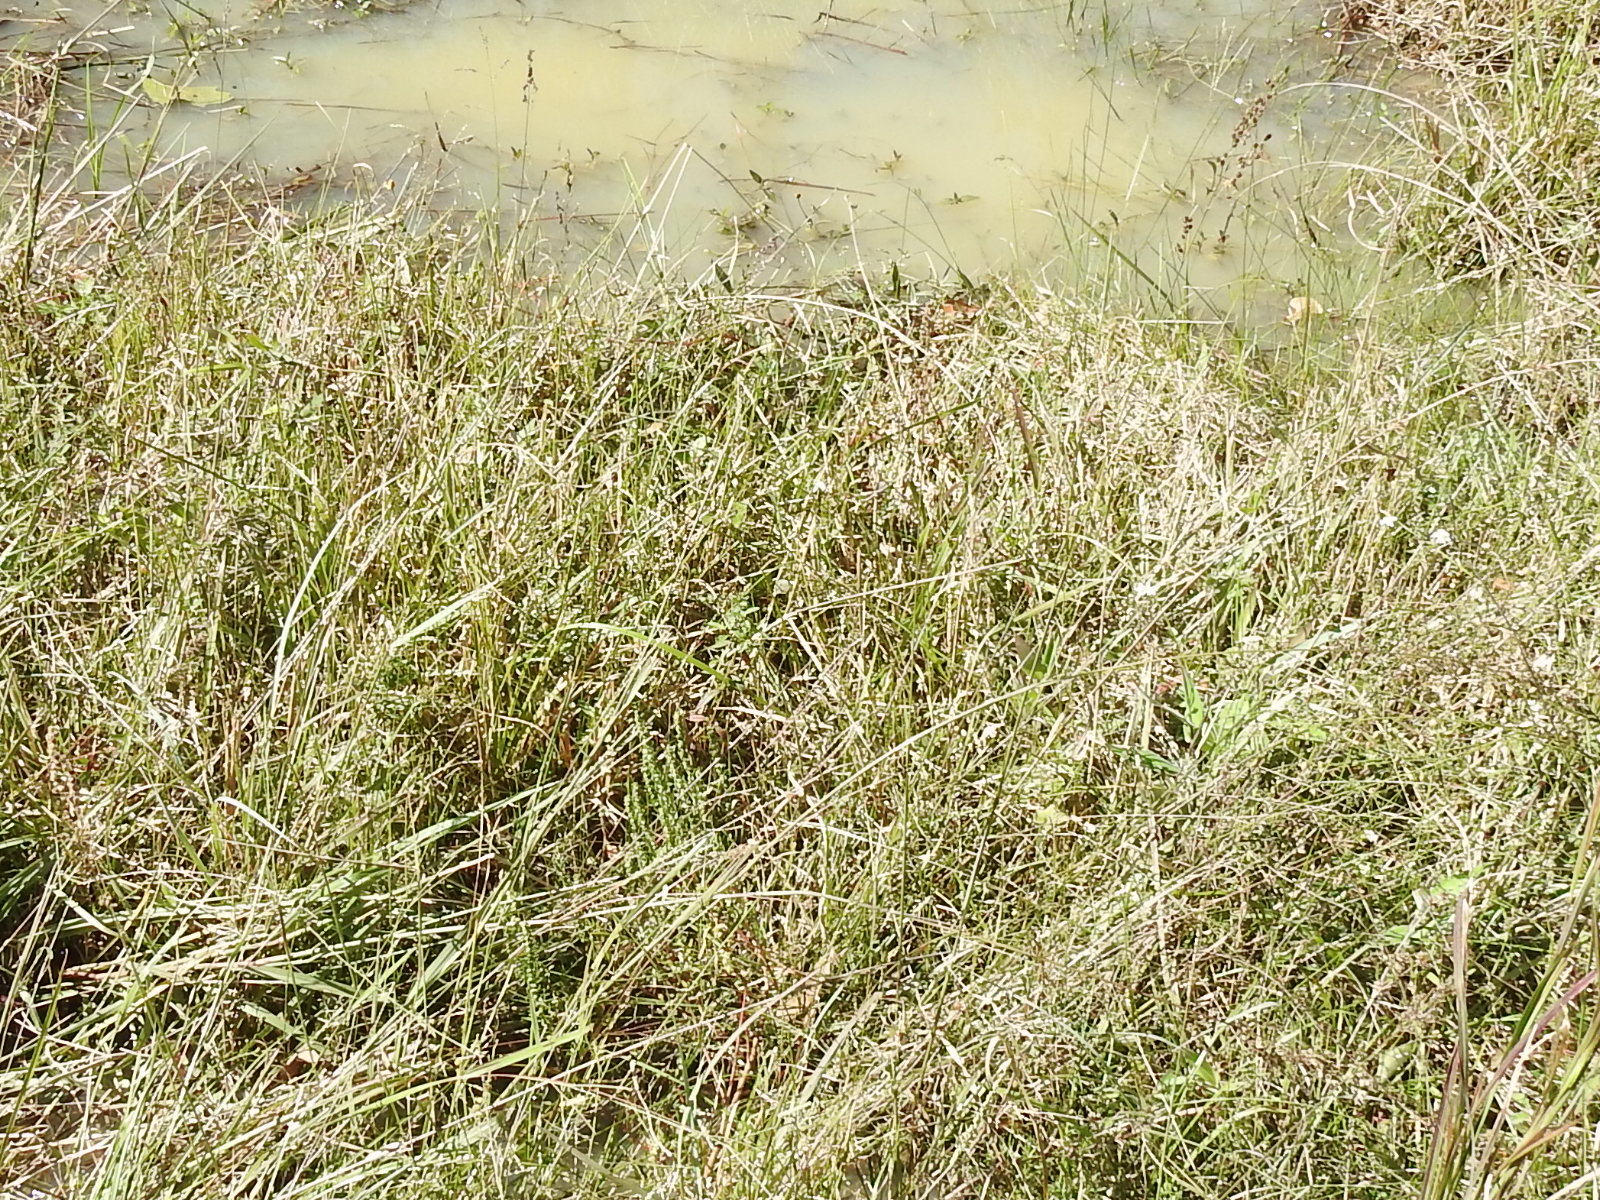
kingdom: Plantae
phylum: Tracheophyta
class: Liliopsida
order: Poales
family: Poaceae
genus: Anthenantia
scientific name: Anthenantia villosa
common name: Green silkyscale
